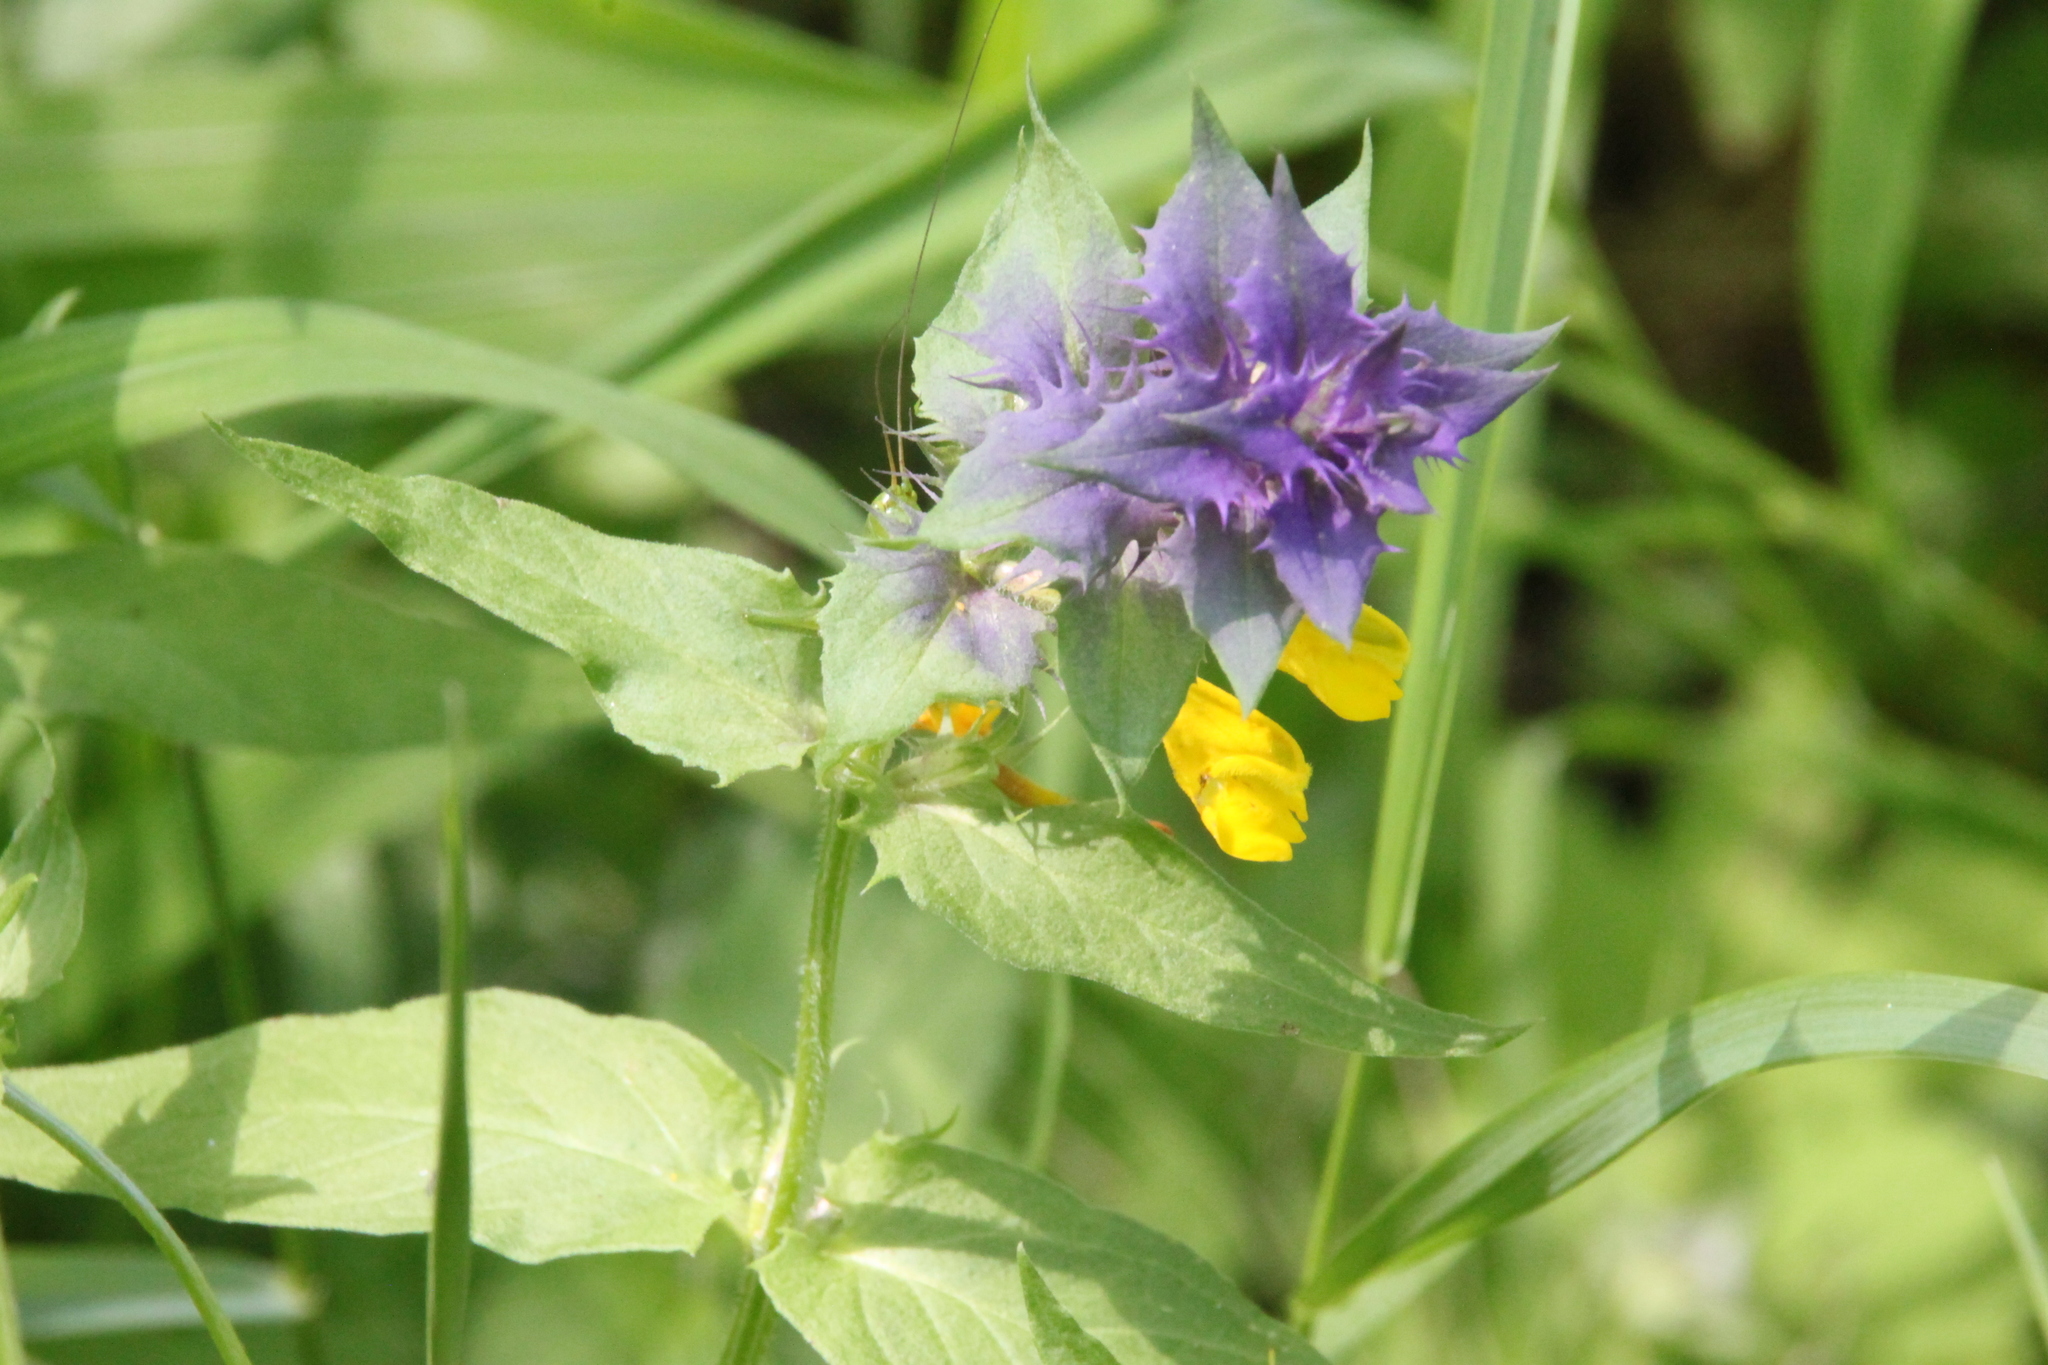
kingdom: Plantae
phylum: Tracheophyta
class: Magnoliopsida
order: Lamiales
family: Orobanchaceae
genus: Melampyrum
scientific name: Melampyrum nemorosum
